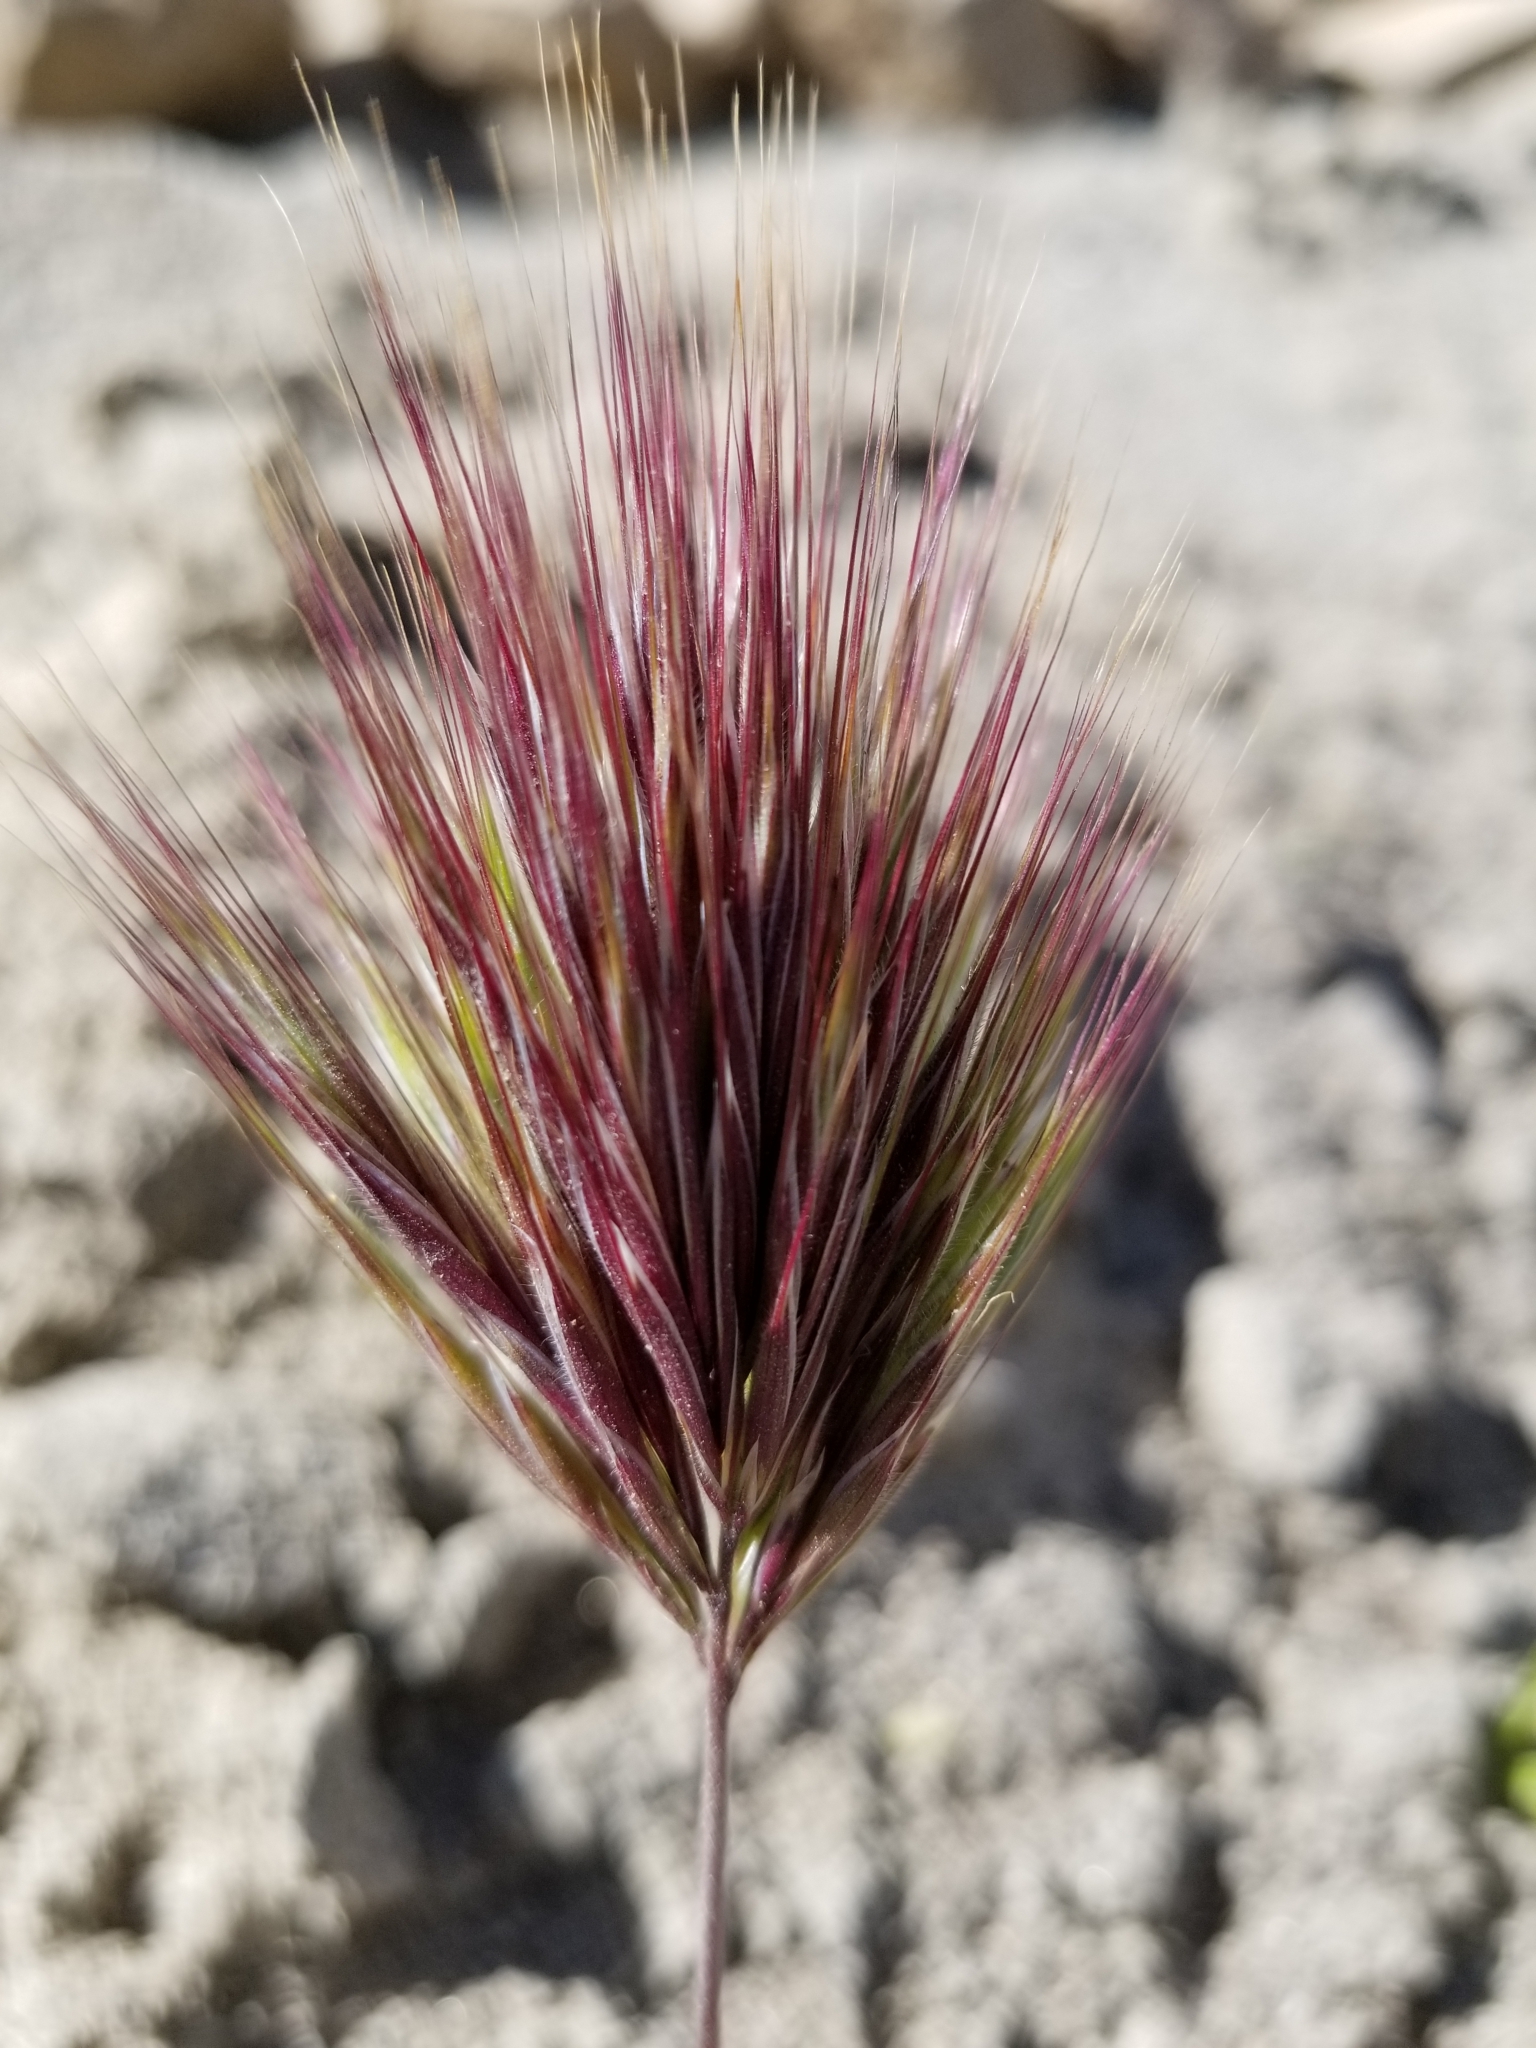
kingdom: Plantae
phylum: Tracheophyta
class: Liliopsida
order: Poales
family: Poaceae
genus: Bromus
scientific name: Bromus rubens
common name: Red brome
